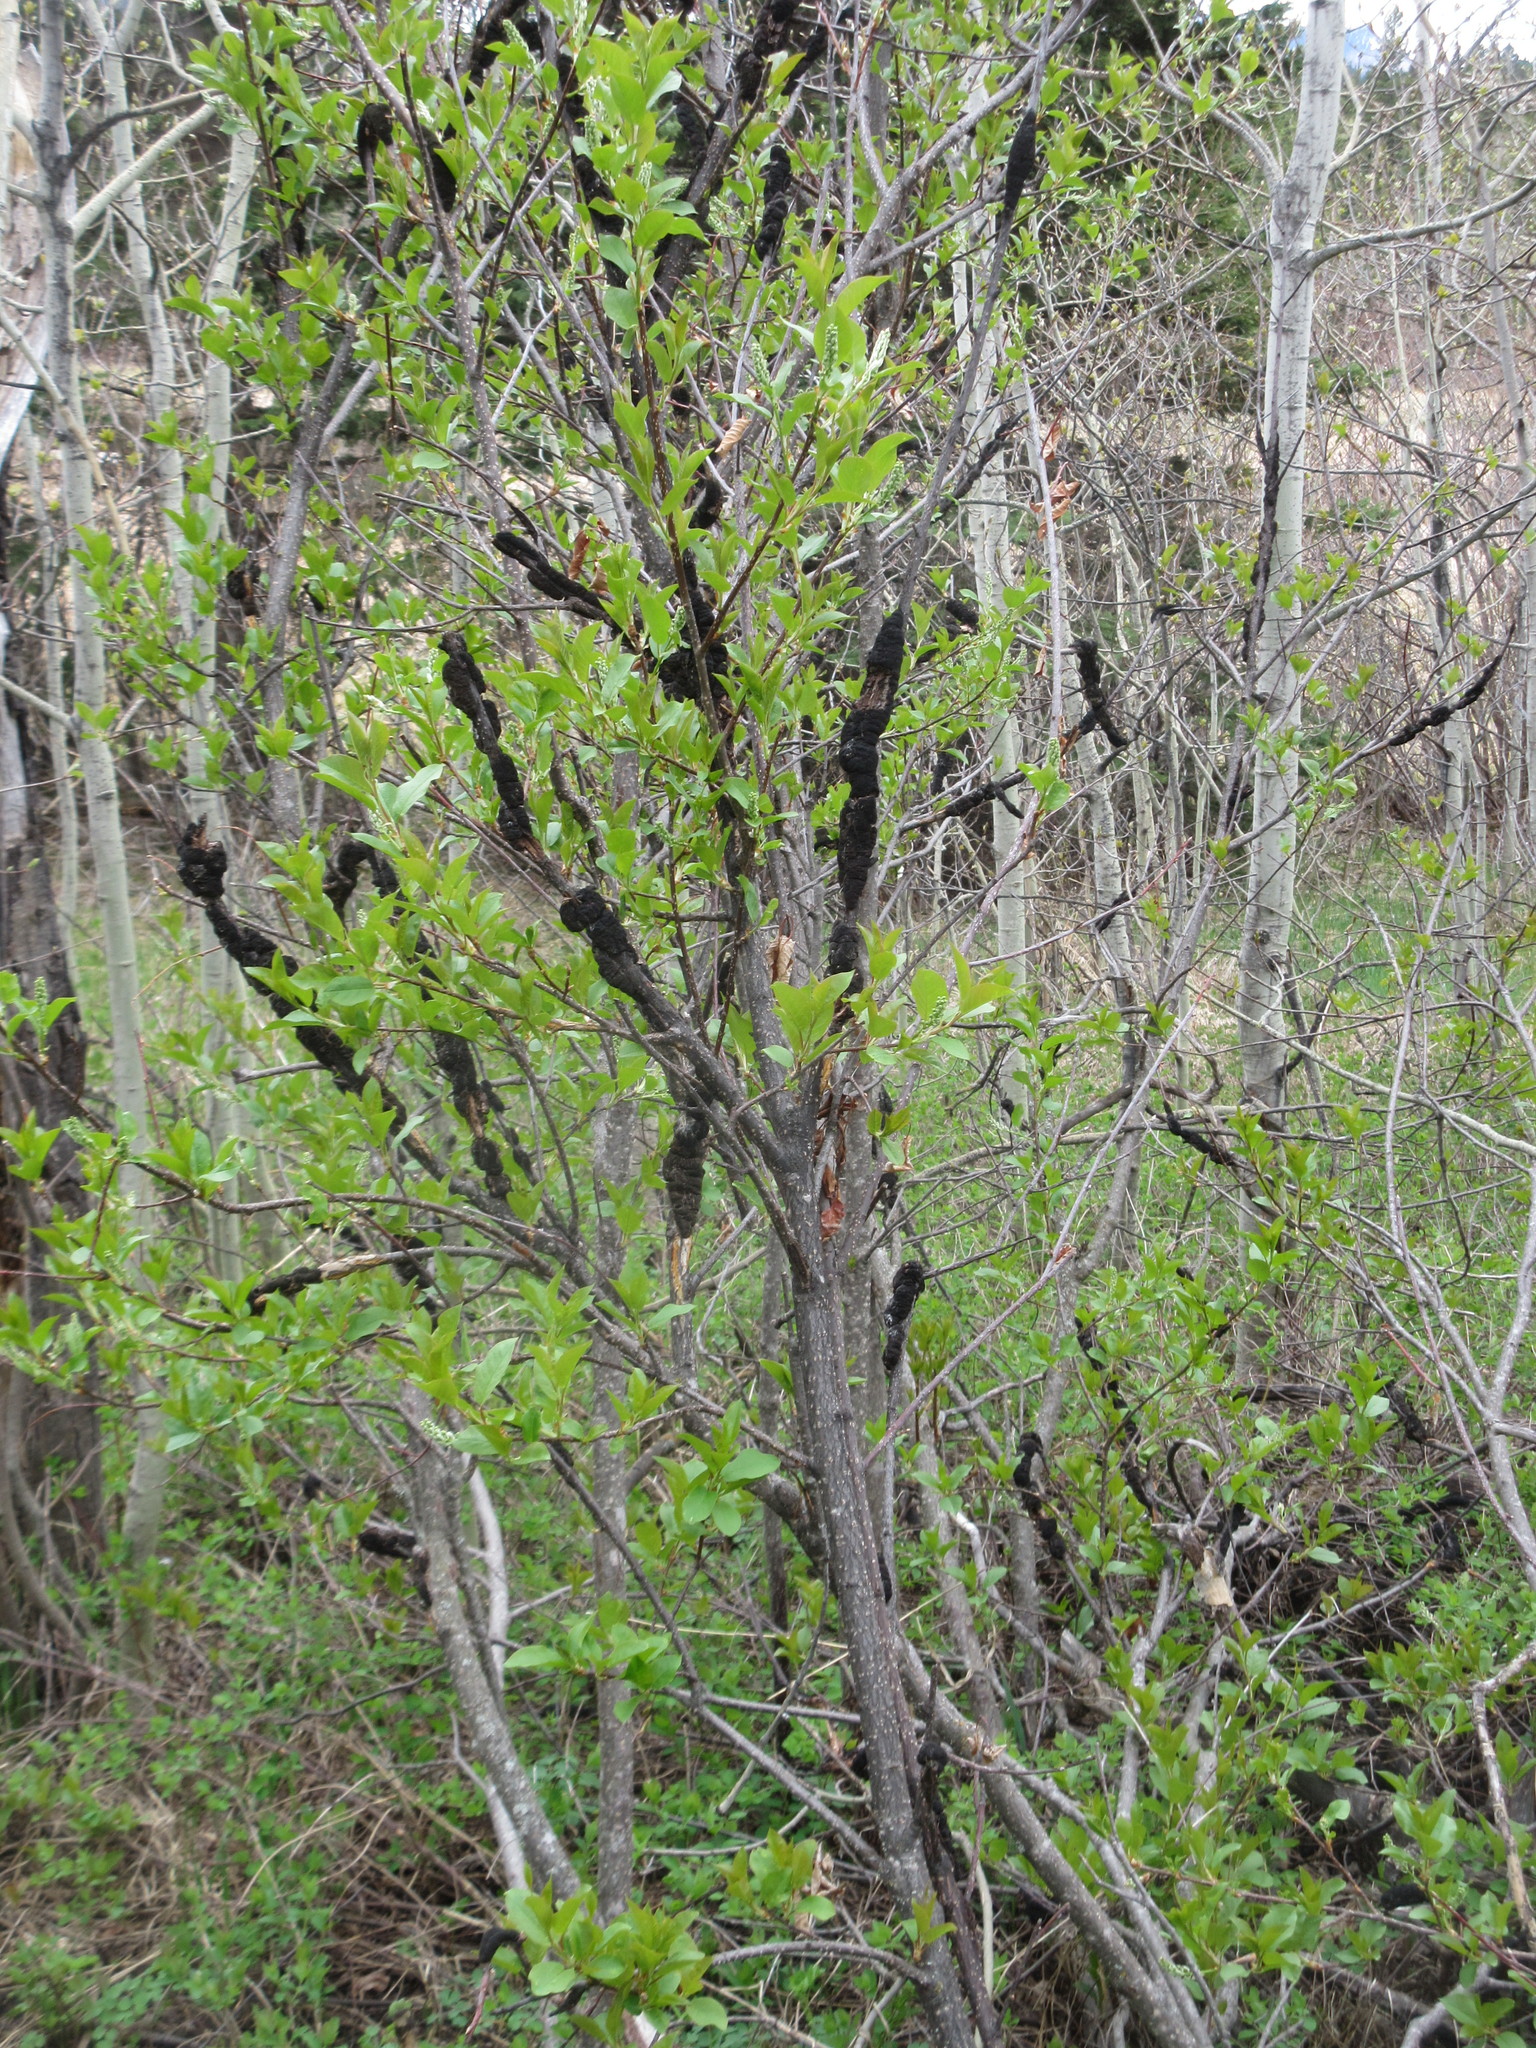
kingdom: Plantae
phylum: Tracheophyta
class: Magnoliopsida
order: Rosales
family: Rosaceae
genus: Prunus
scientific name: Prunus virginiana
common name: Chokecherry
